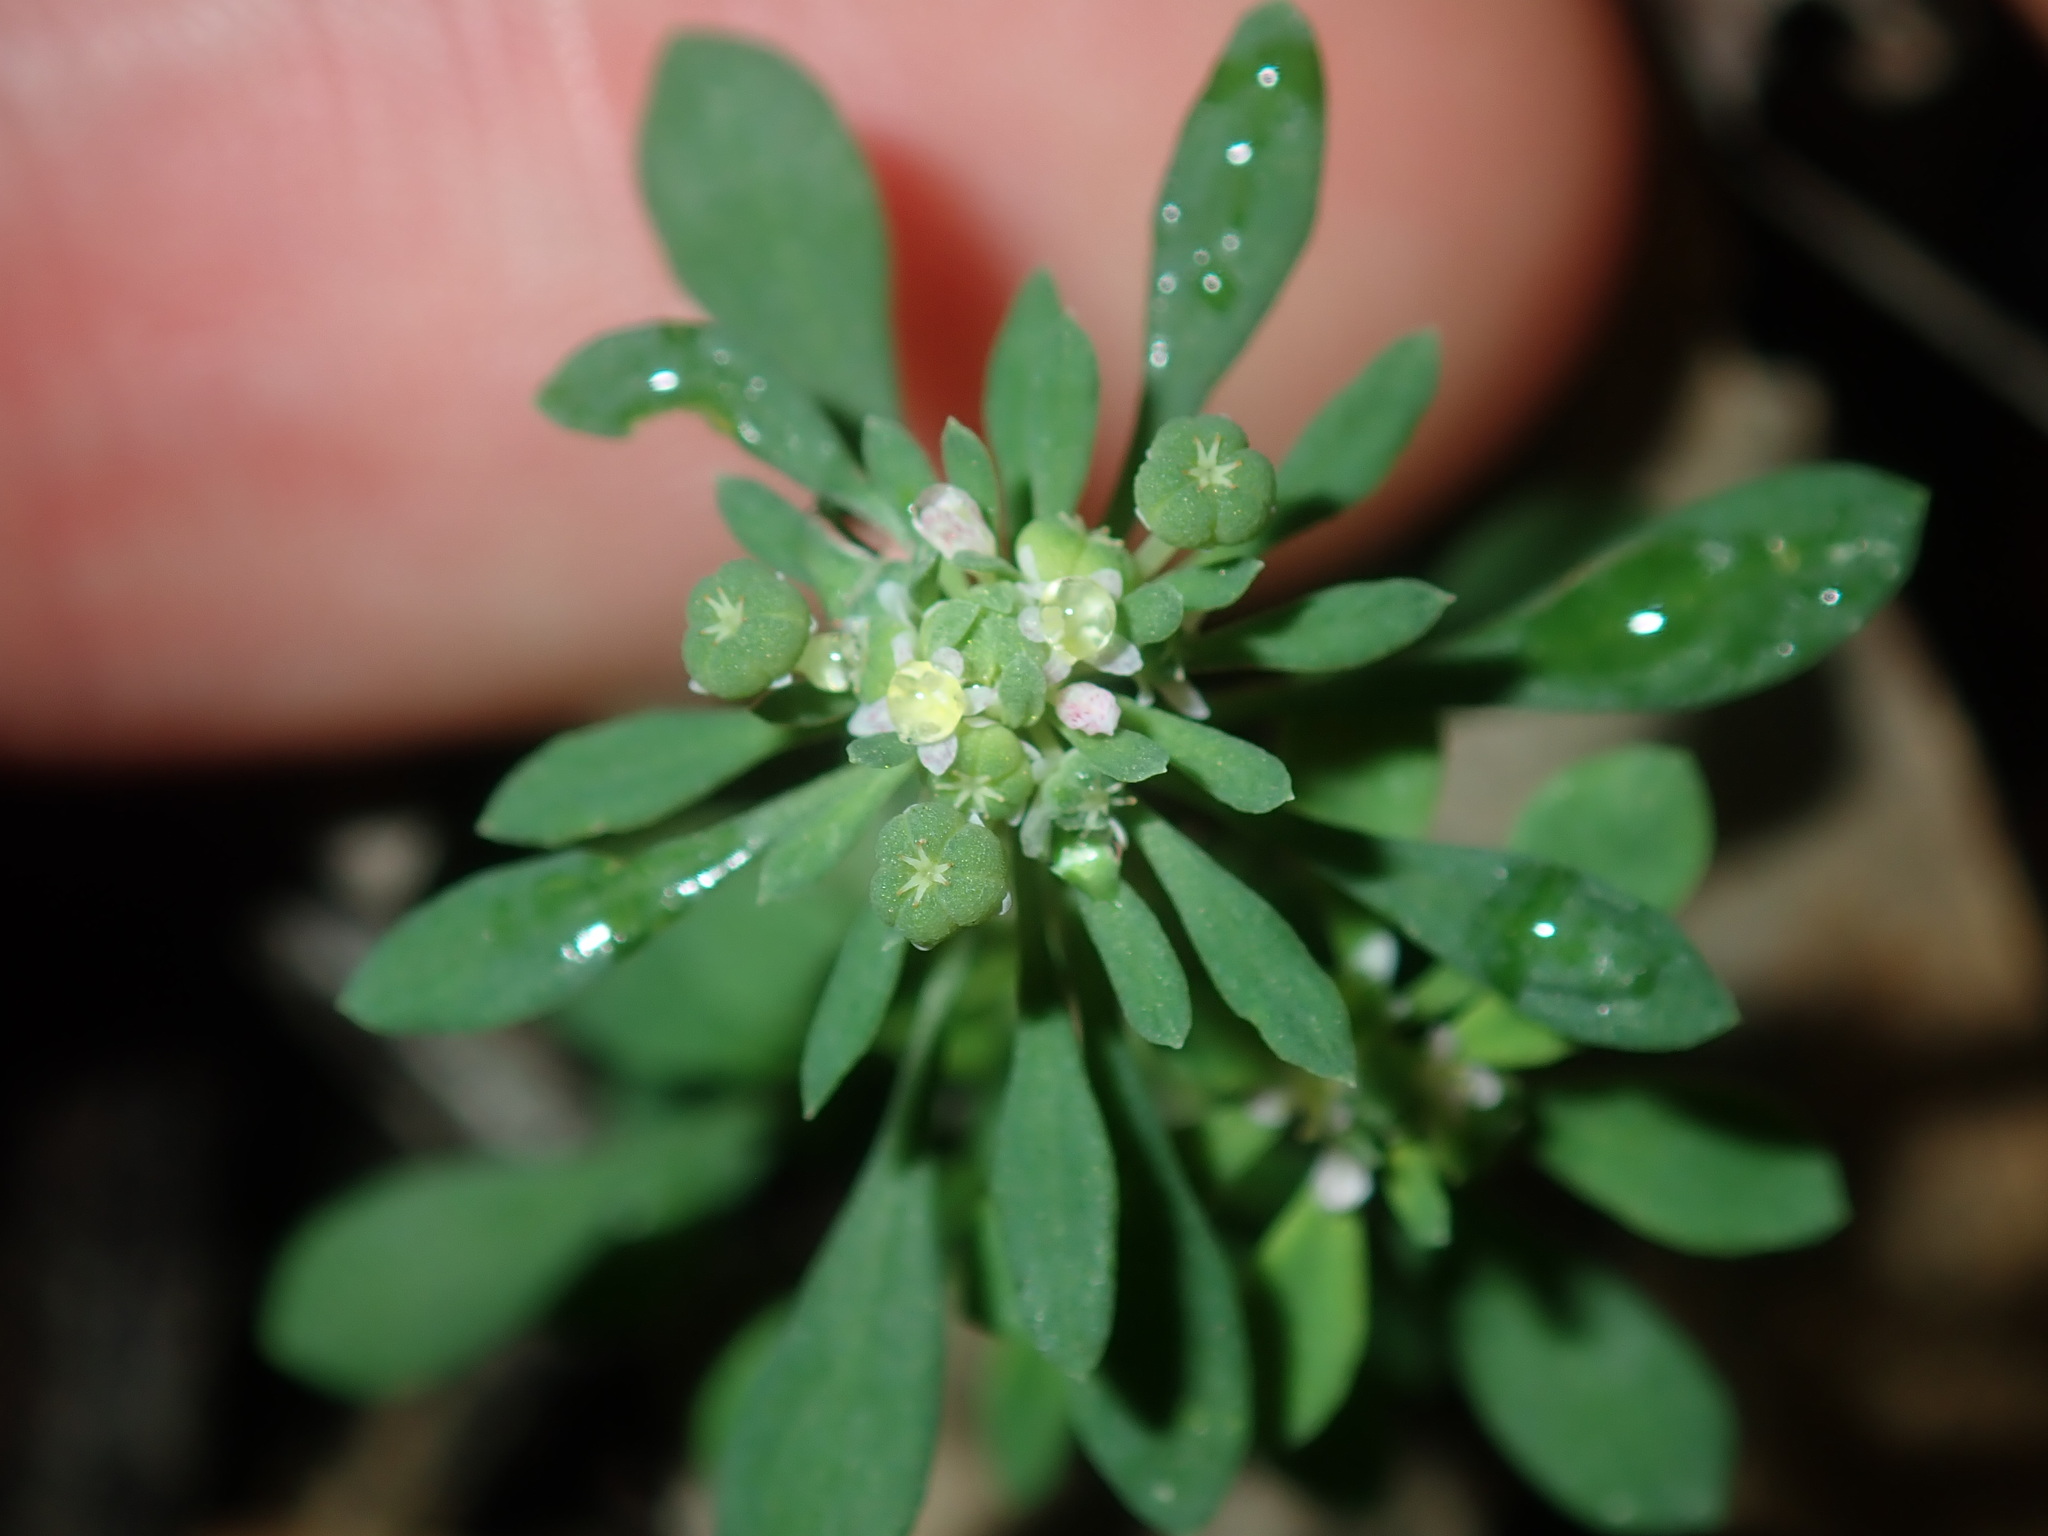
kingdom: Plantae
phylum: Tracheophyta
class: Magnoliopsida
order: Malpighiales
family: Phyllanthaceae
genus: Poranthera
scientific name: Poranthera microphylla
